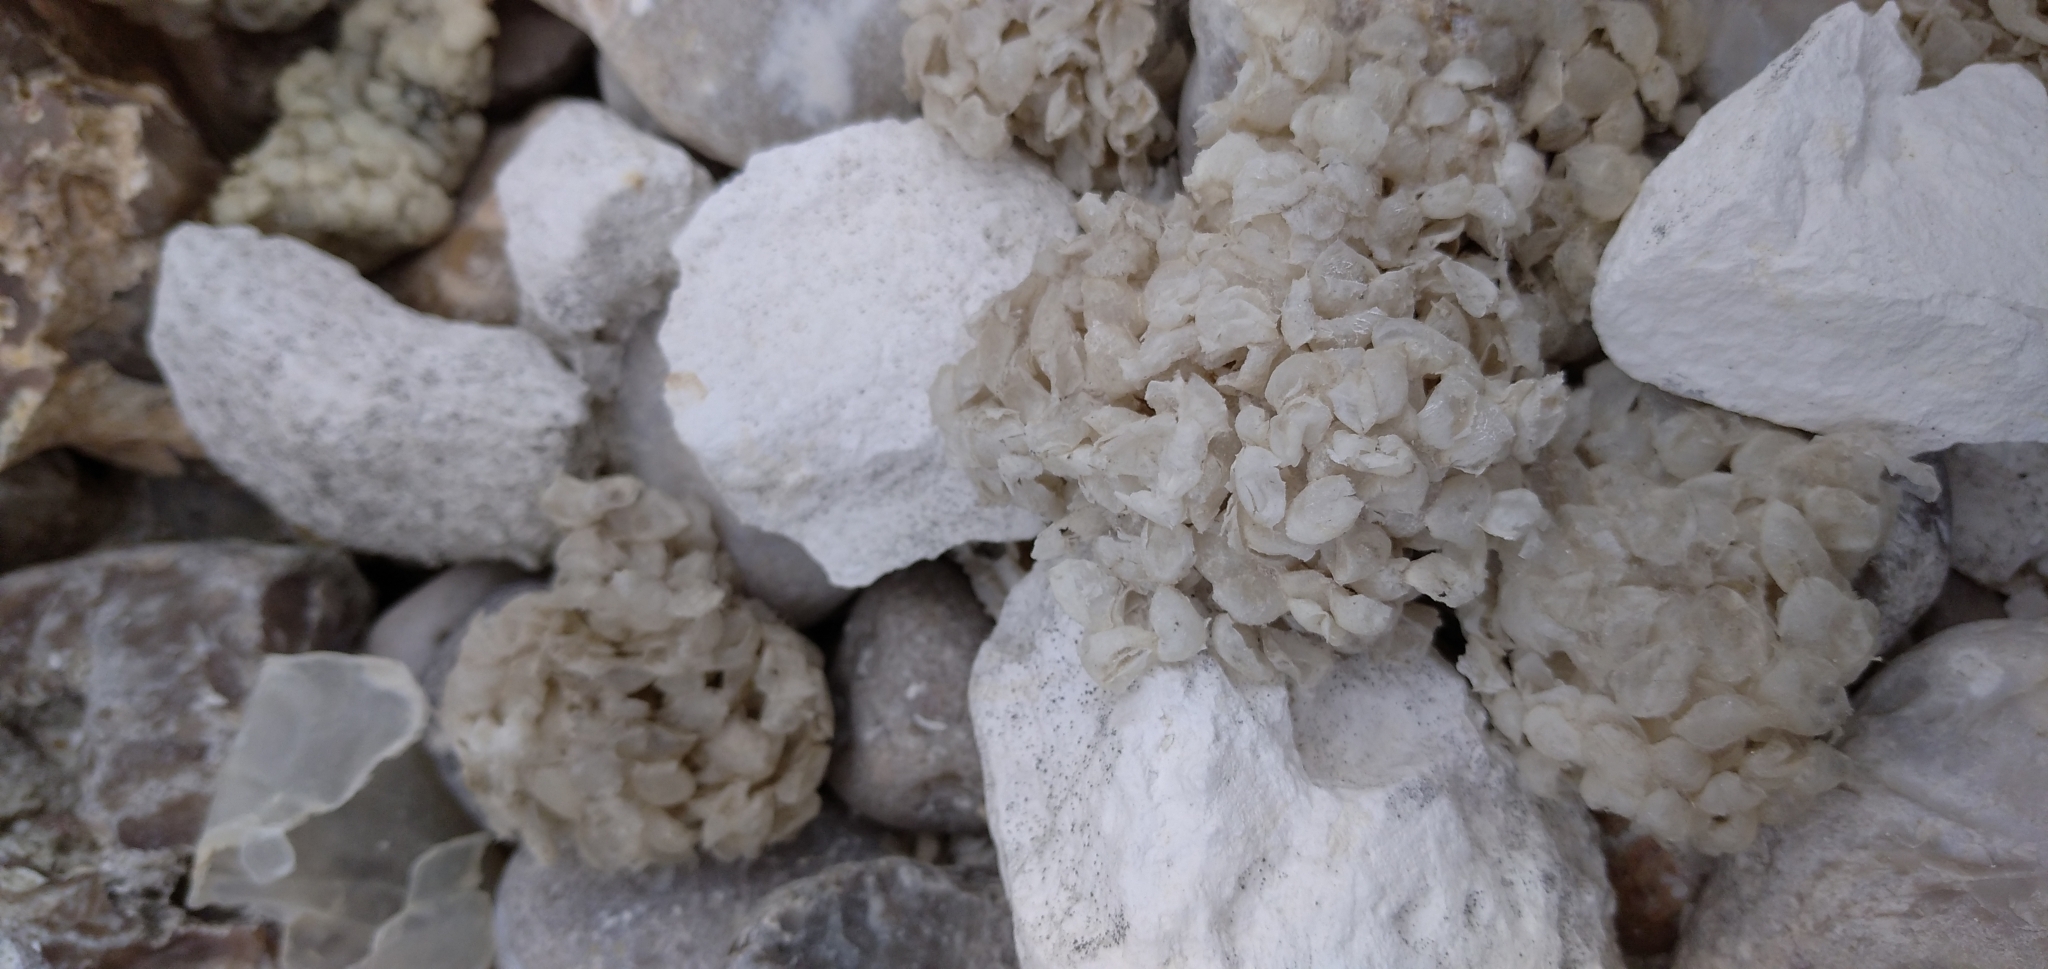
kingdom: Animalia
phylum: Mollusca
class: Gastropoda
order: Neogastropoda
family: Buccinidae
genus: Buccinum
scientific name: Buccinum undatum
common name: Common whelk
